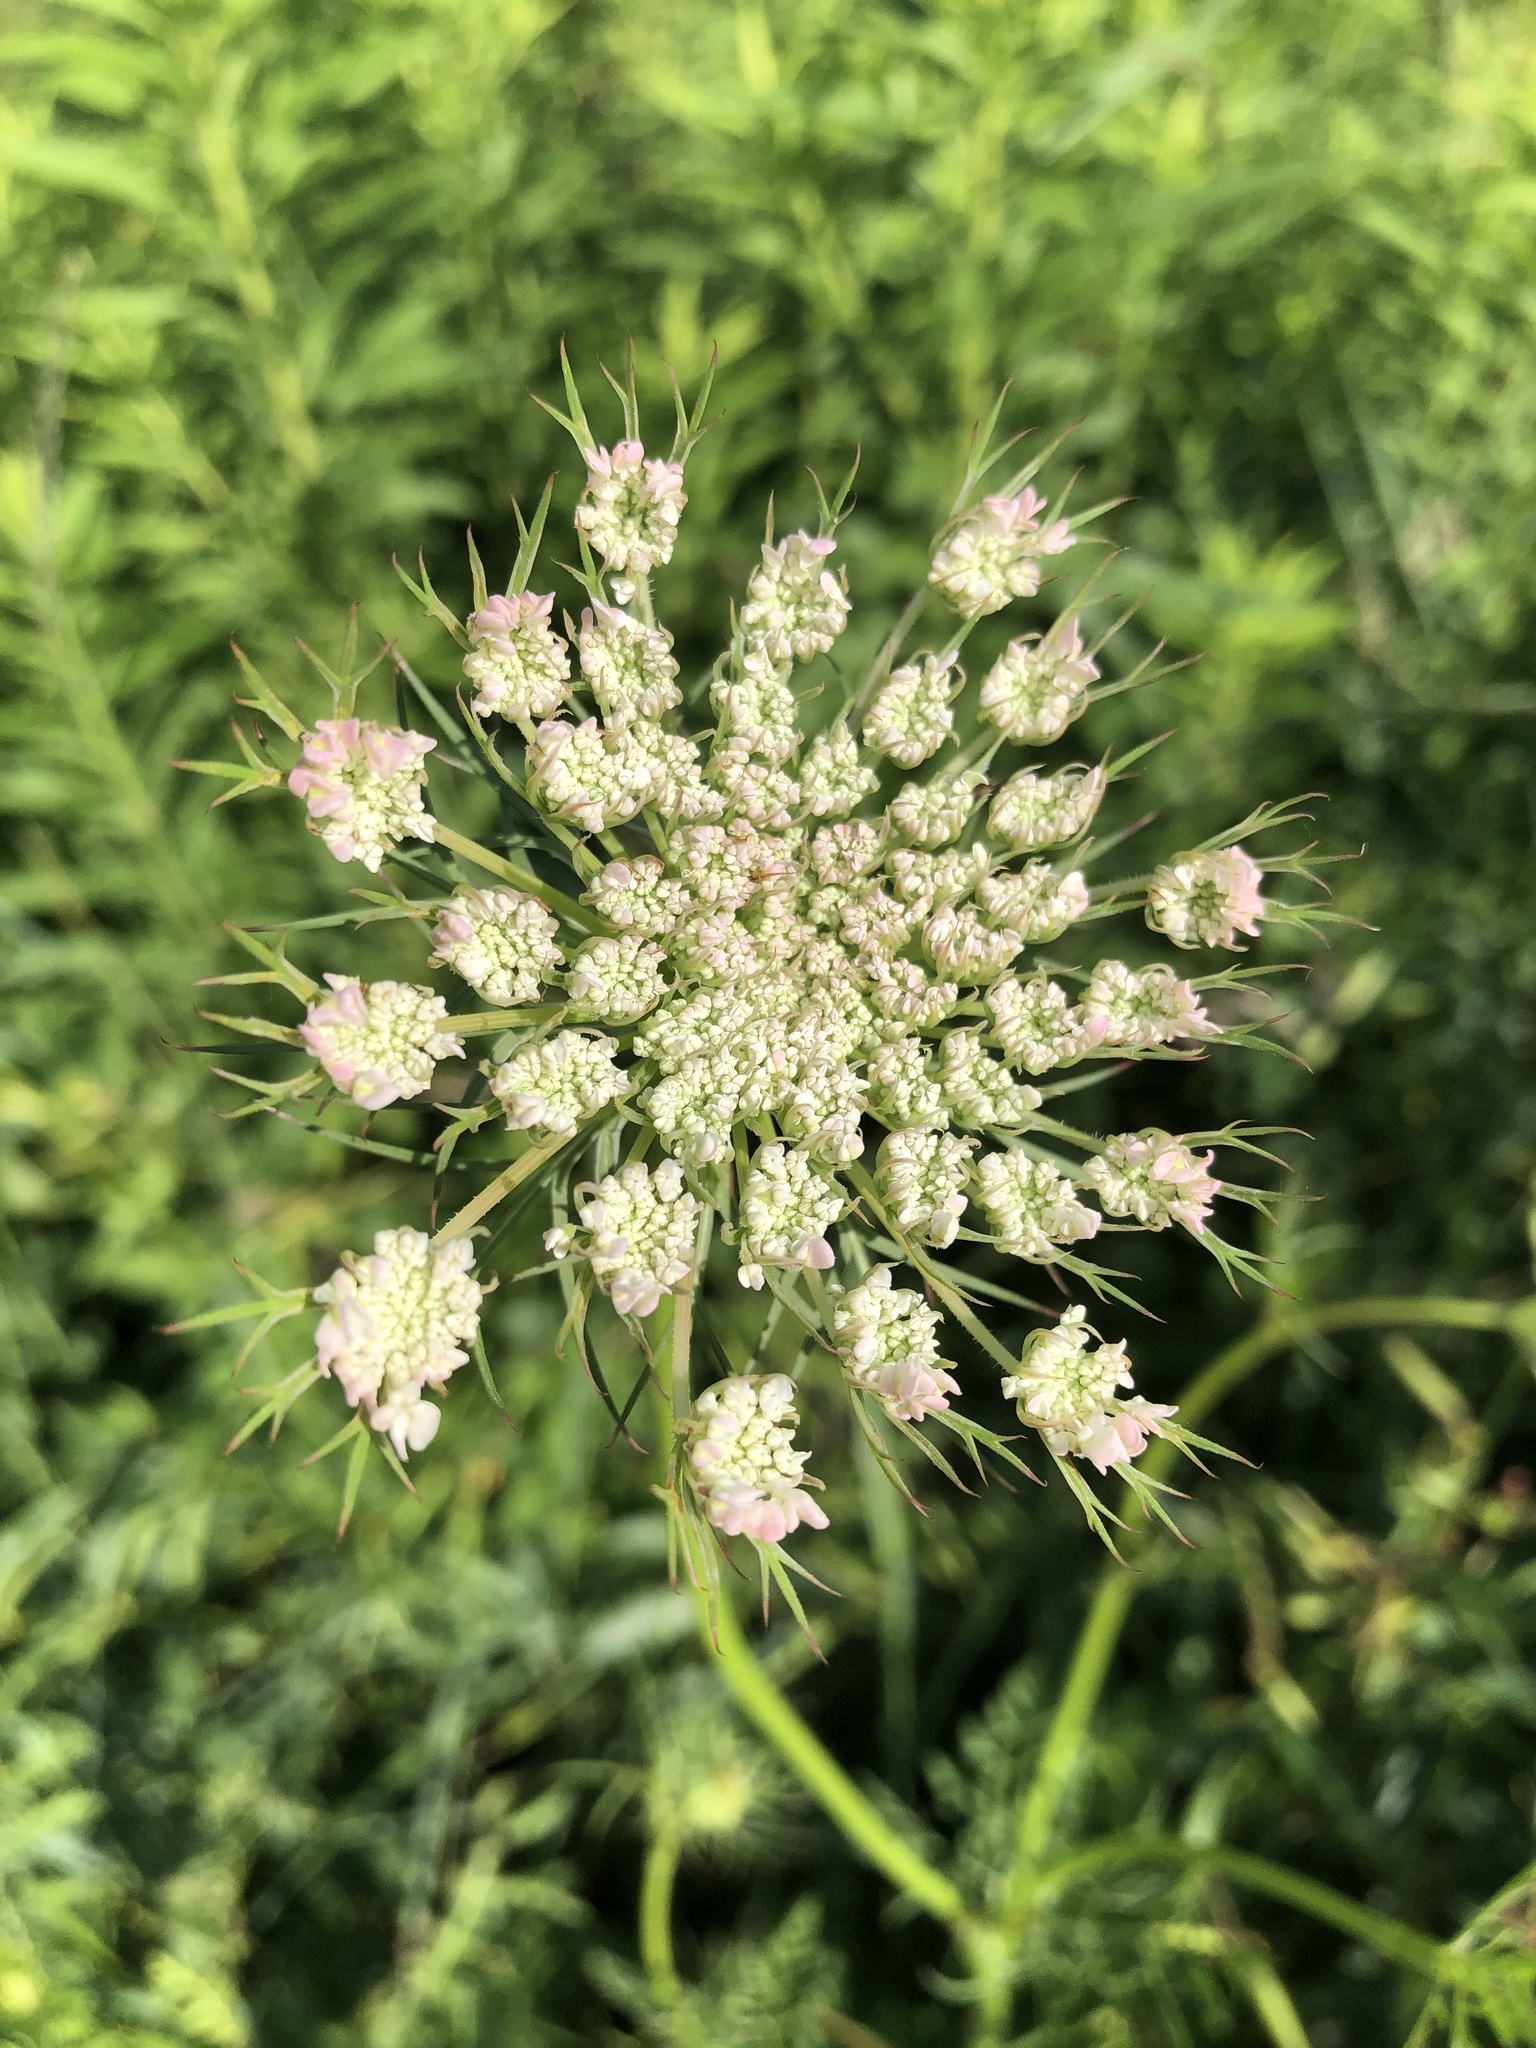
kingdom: Plantae
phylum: Tracheophyta
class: Magnoliopsida
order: Apiales
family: Apiaceae
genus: Daucus
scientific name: Daucus carota
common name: Wild carrot
